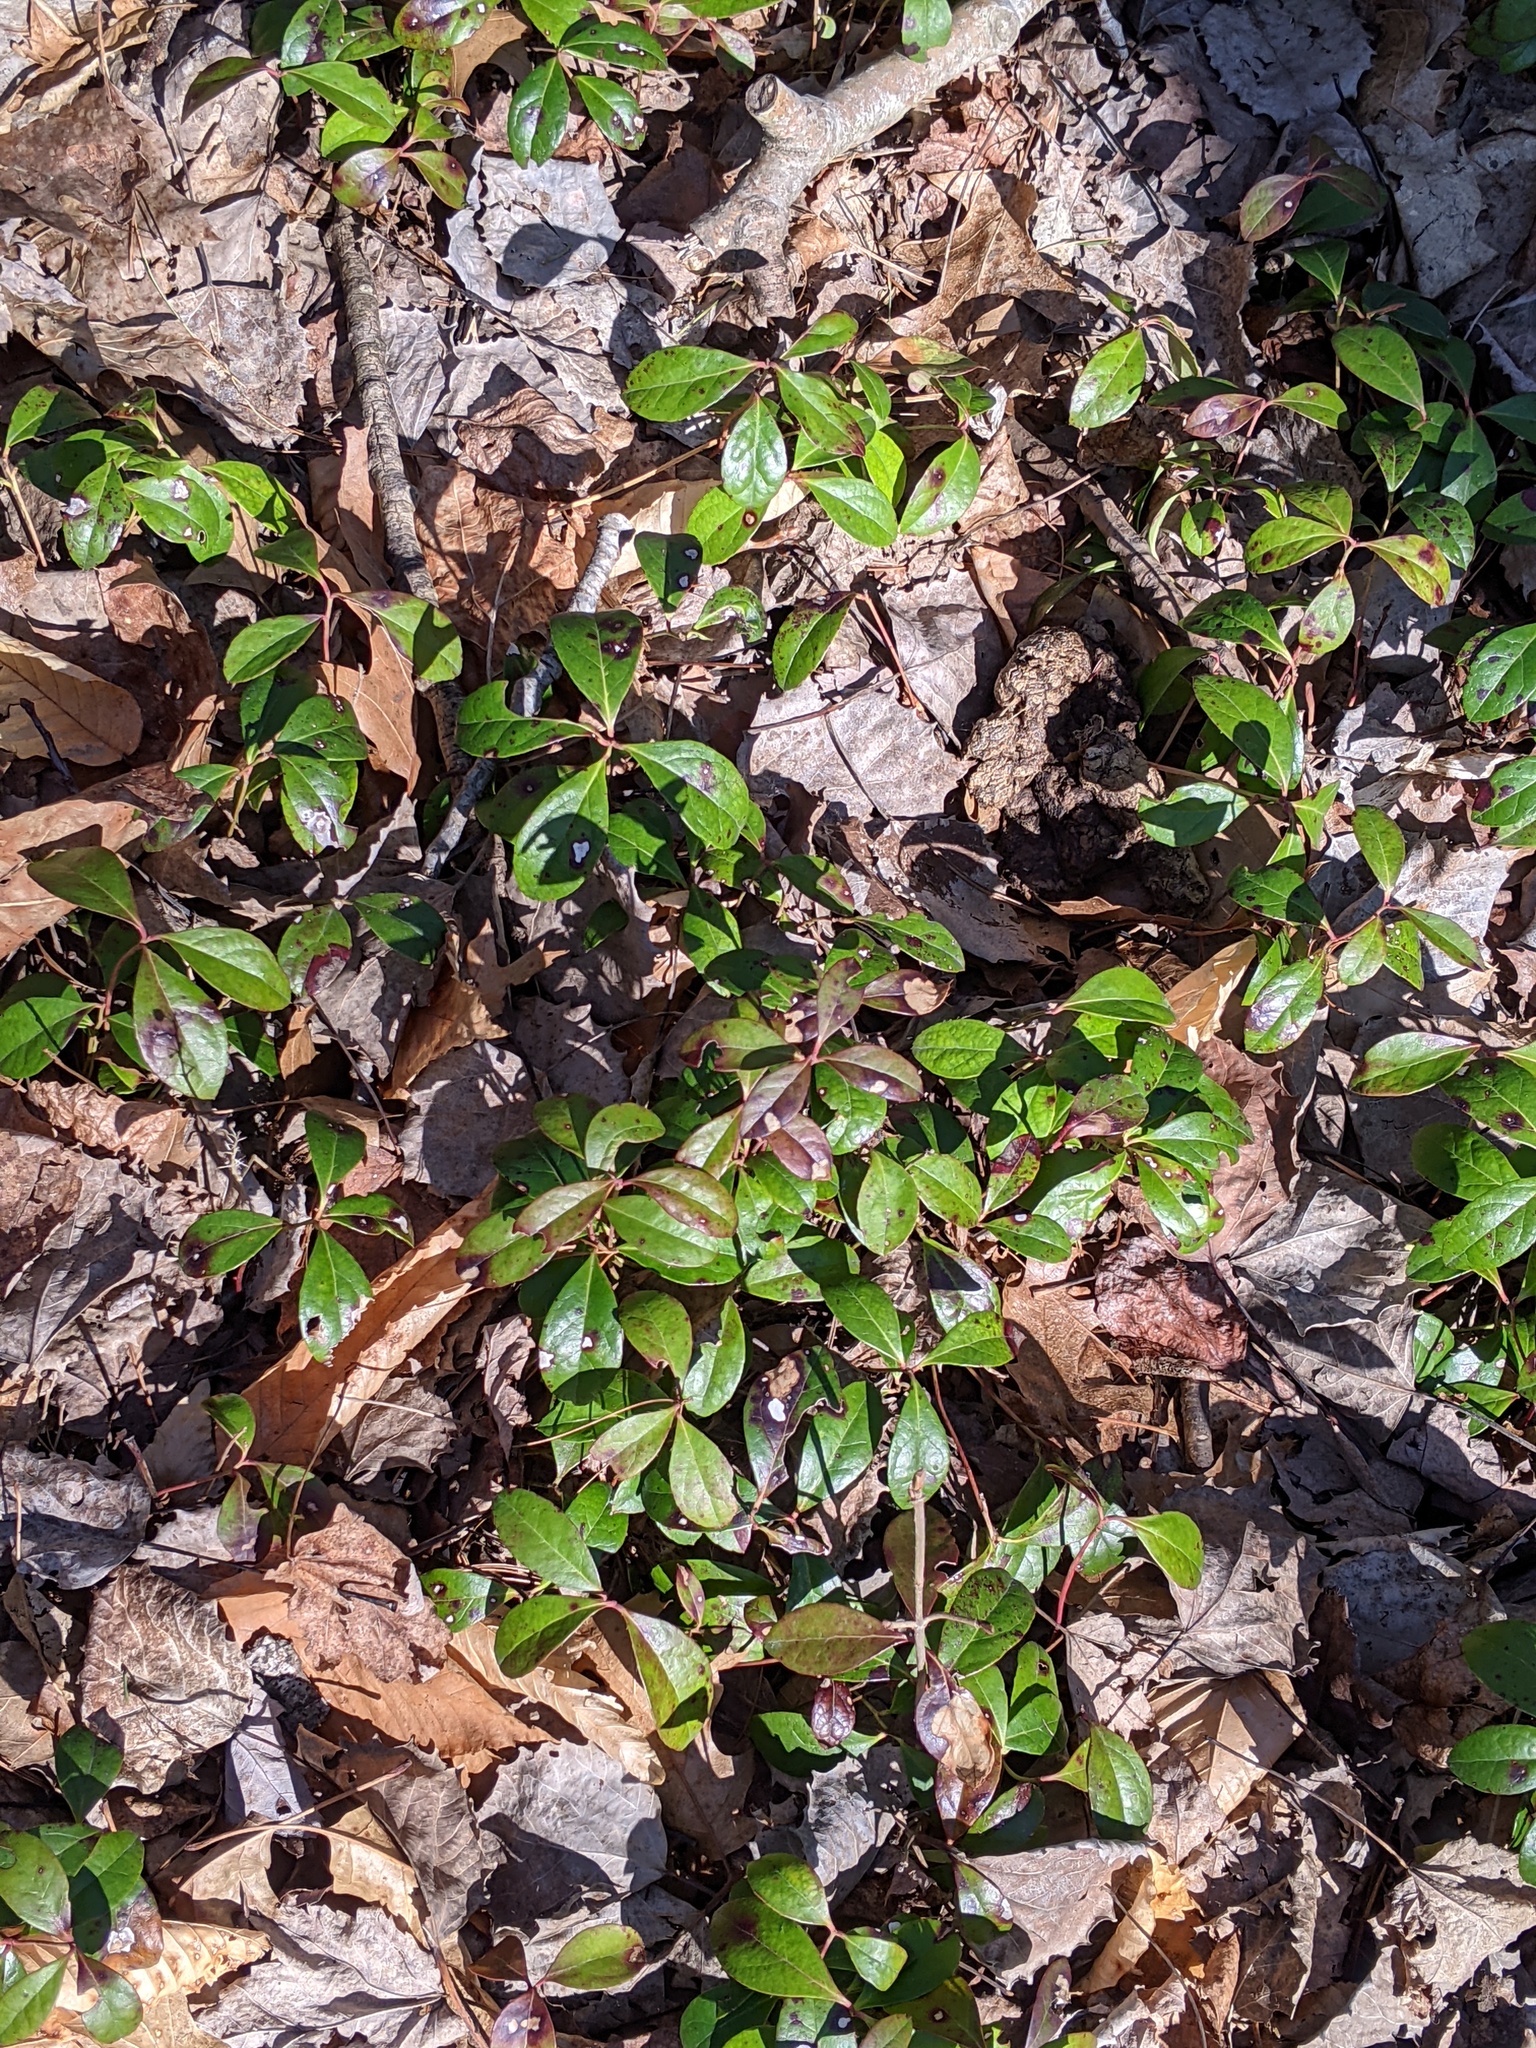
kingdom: Plantae
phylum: Tracheophyta
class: Magnoliopsida
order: Ericales
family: Ericaceae
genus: Gaultheria
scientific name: Gaultheria procumbens
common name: Checkerberry
